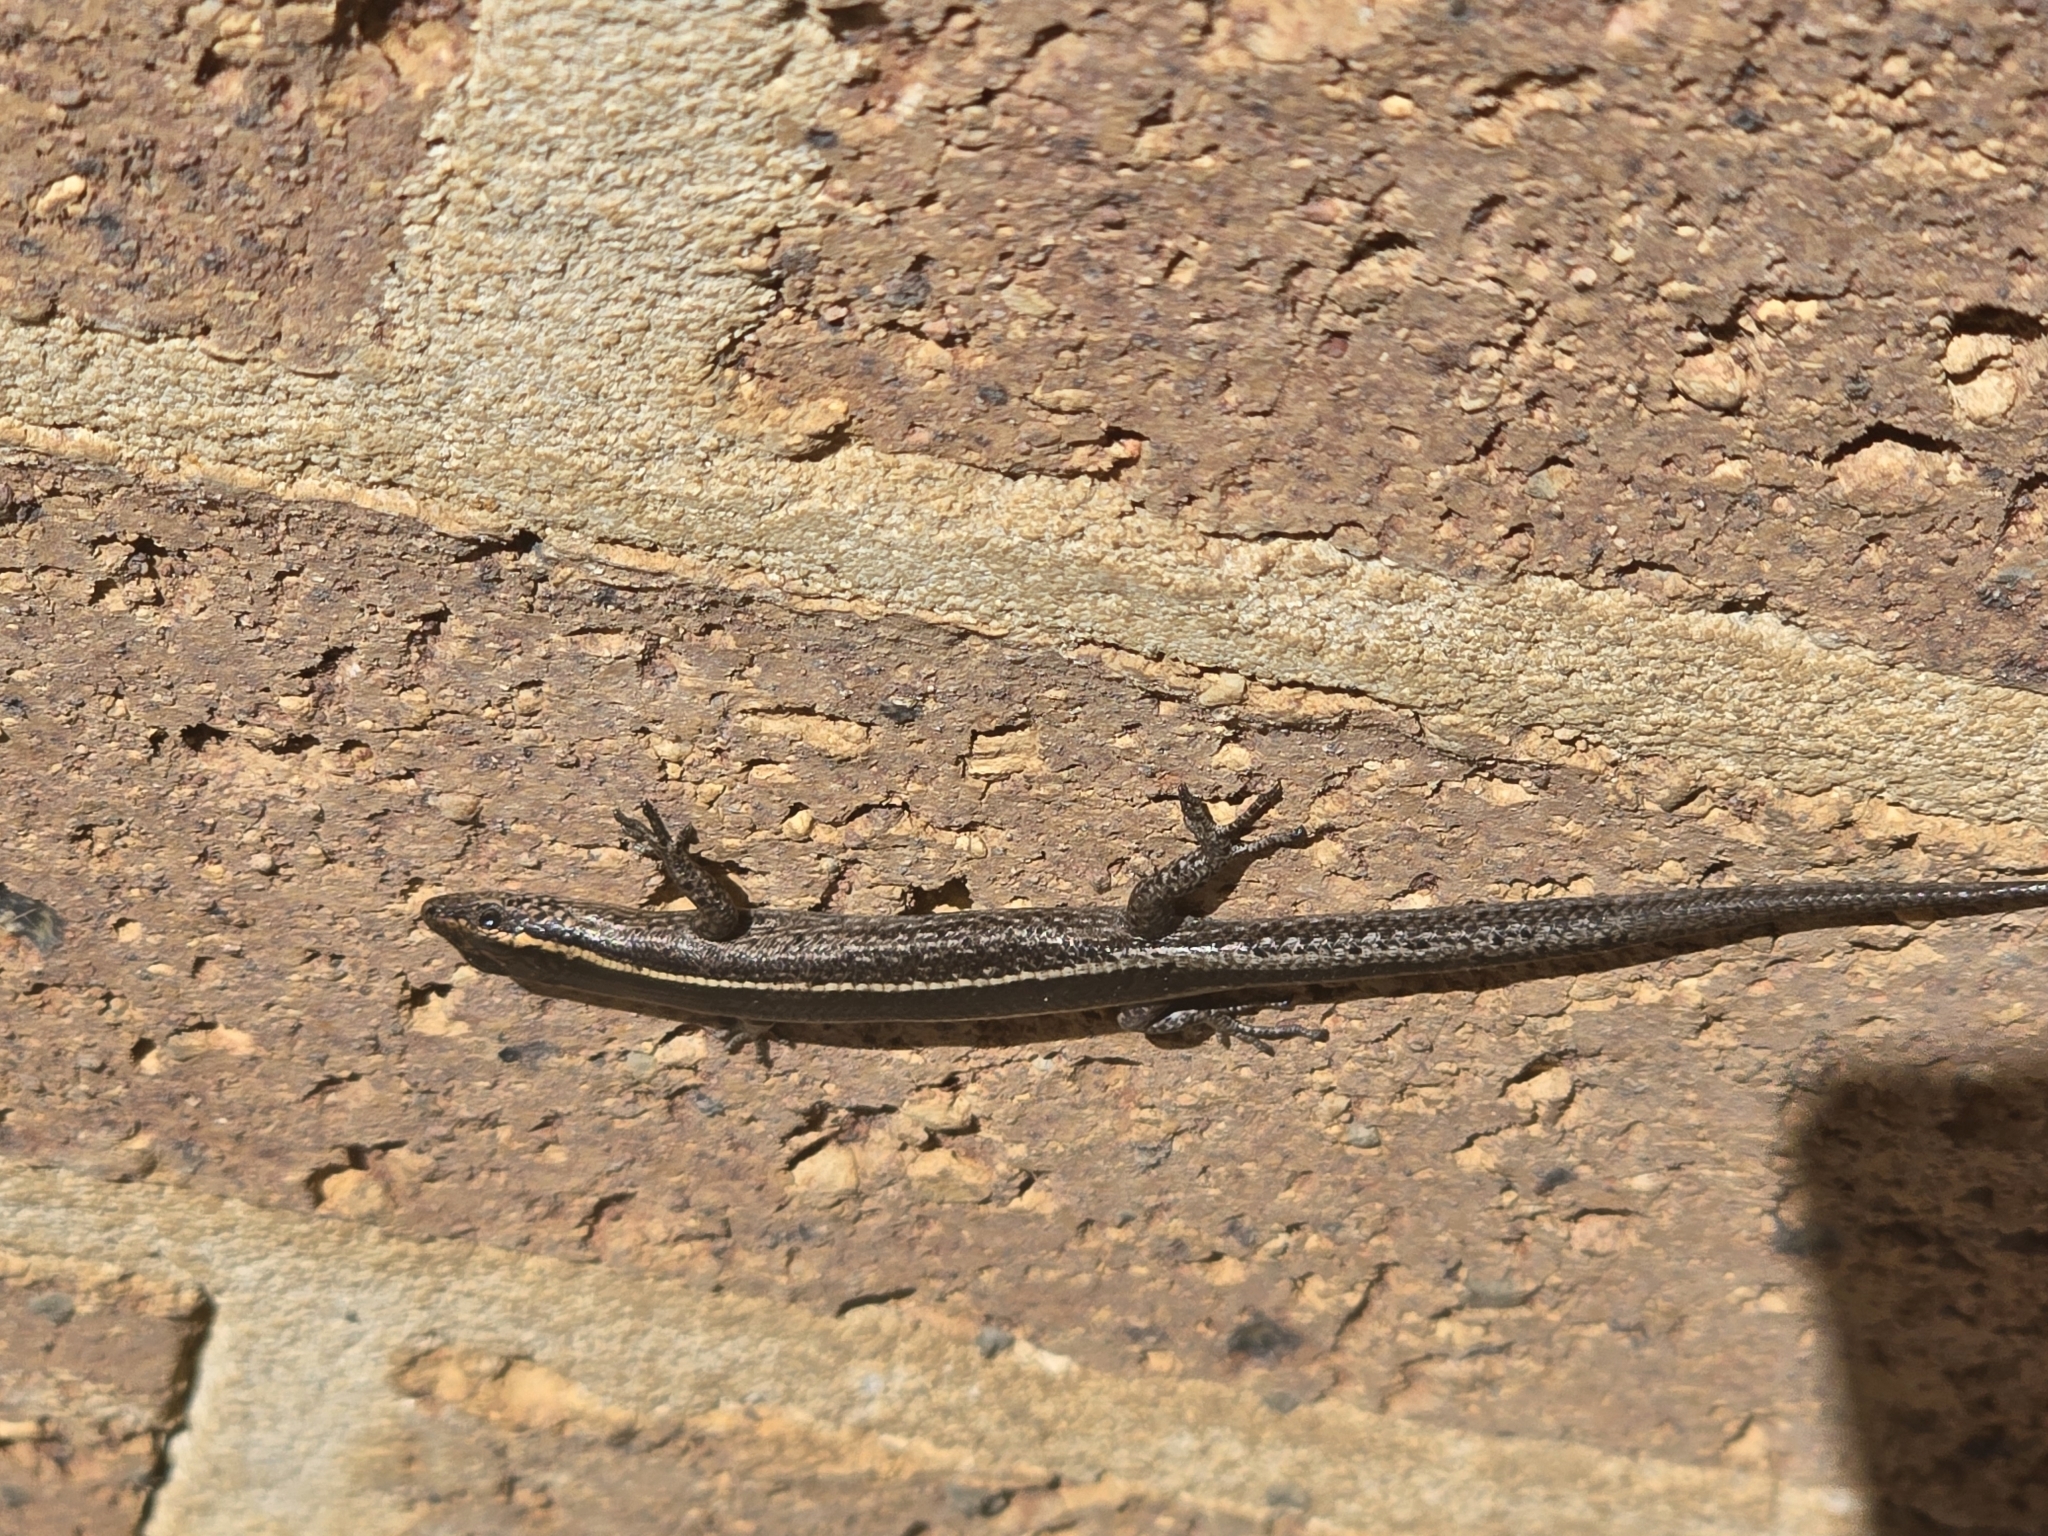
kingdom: Animalia
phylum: Chordata
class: Squamata
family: Scincidae
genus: Cryptoblepharus
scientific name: Cryptoblepharus pulcher
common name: Elegant snake-eyed skink
